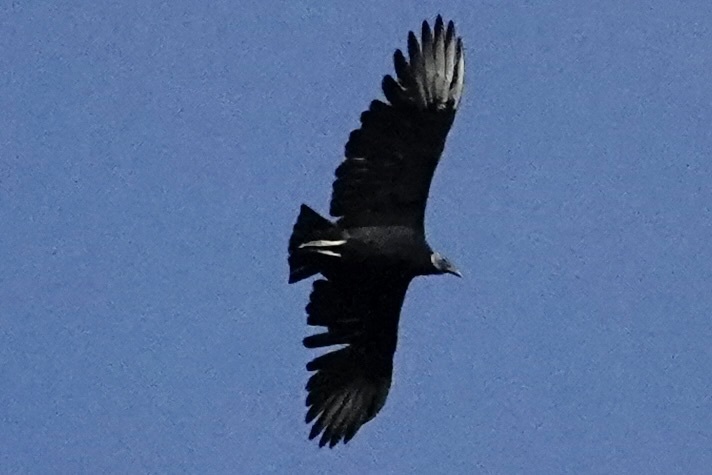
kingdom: Animalia
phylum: Chordata
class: Aves
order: Accipitriformes
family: Cathartidae
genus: Coragyps
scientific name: Coragyps atratus
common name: Black vulture
